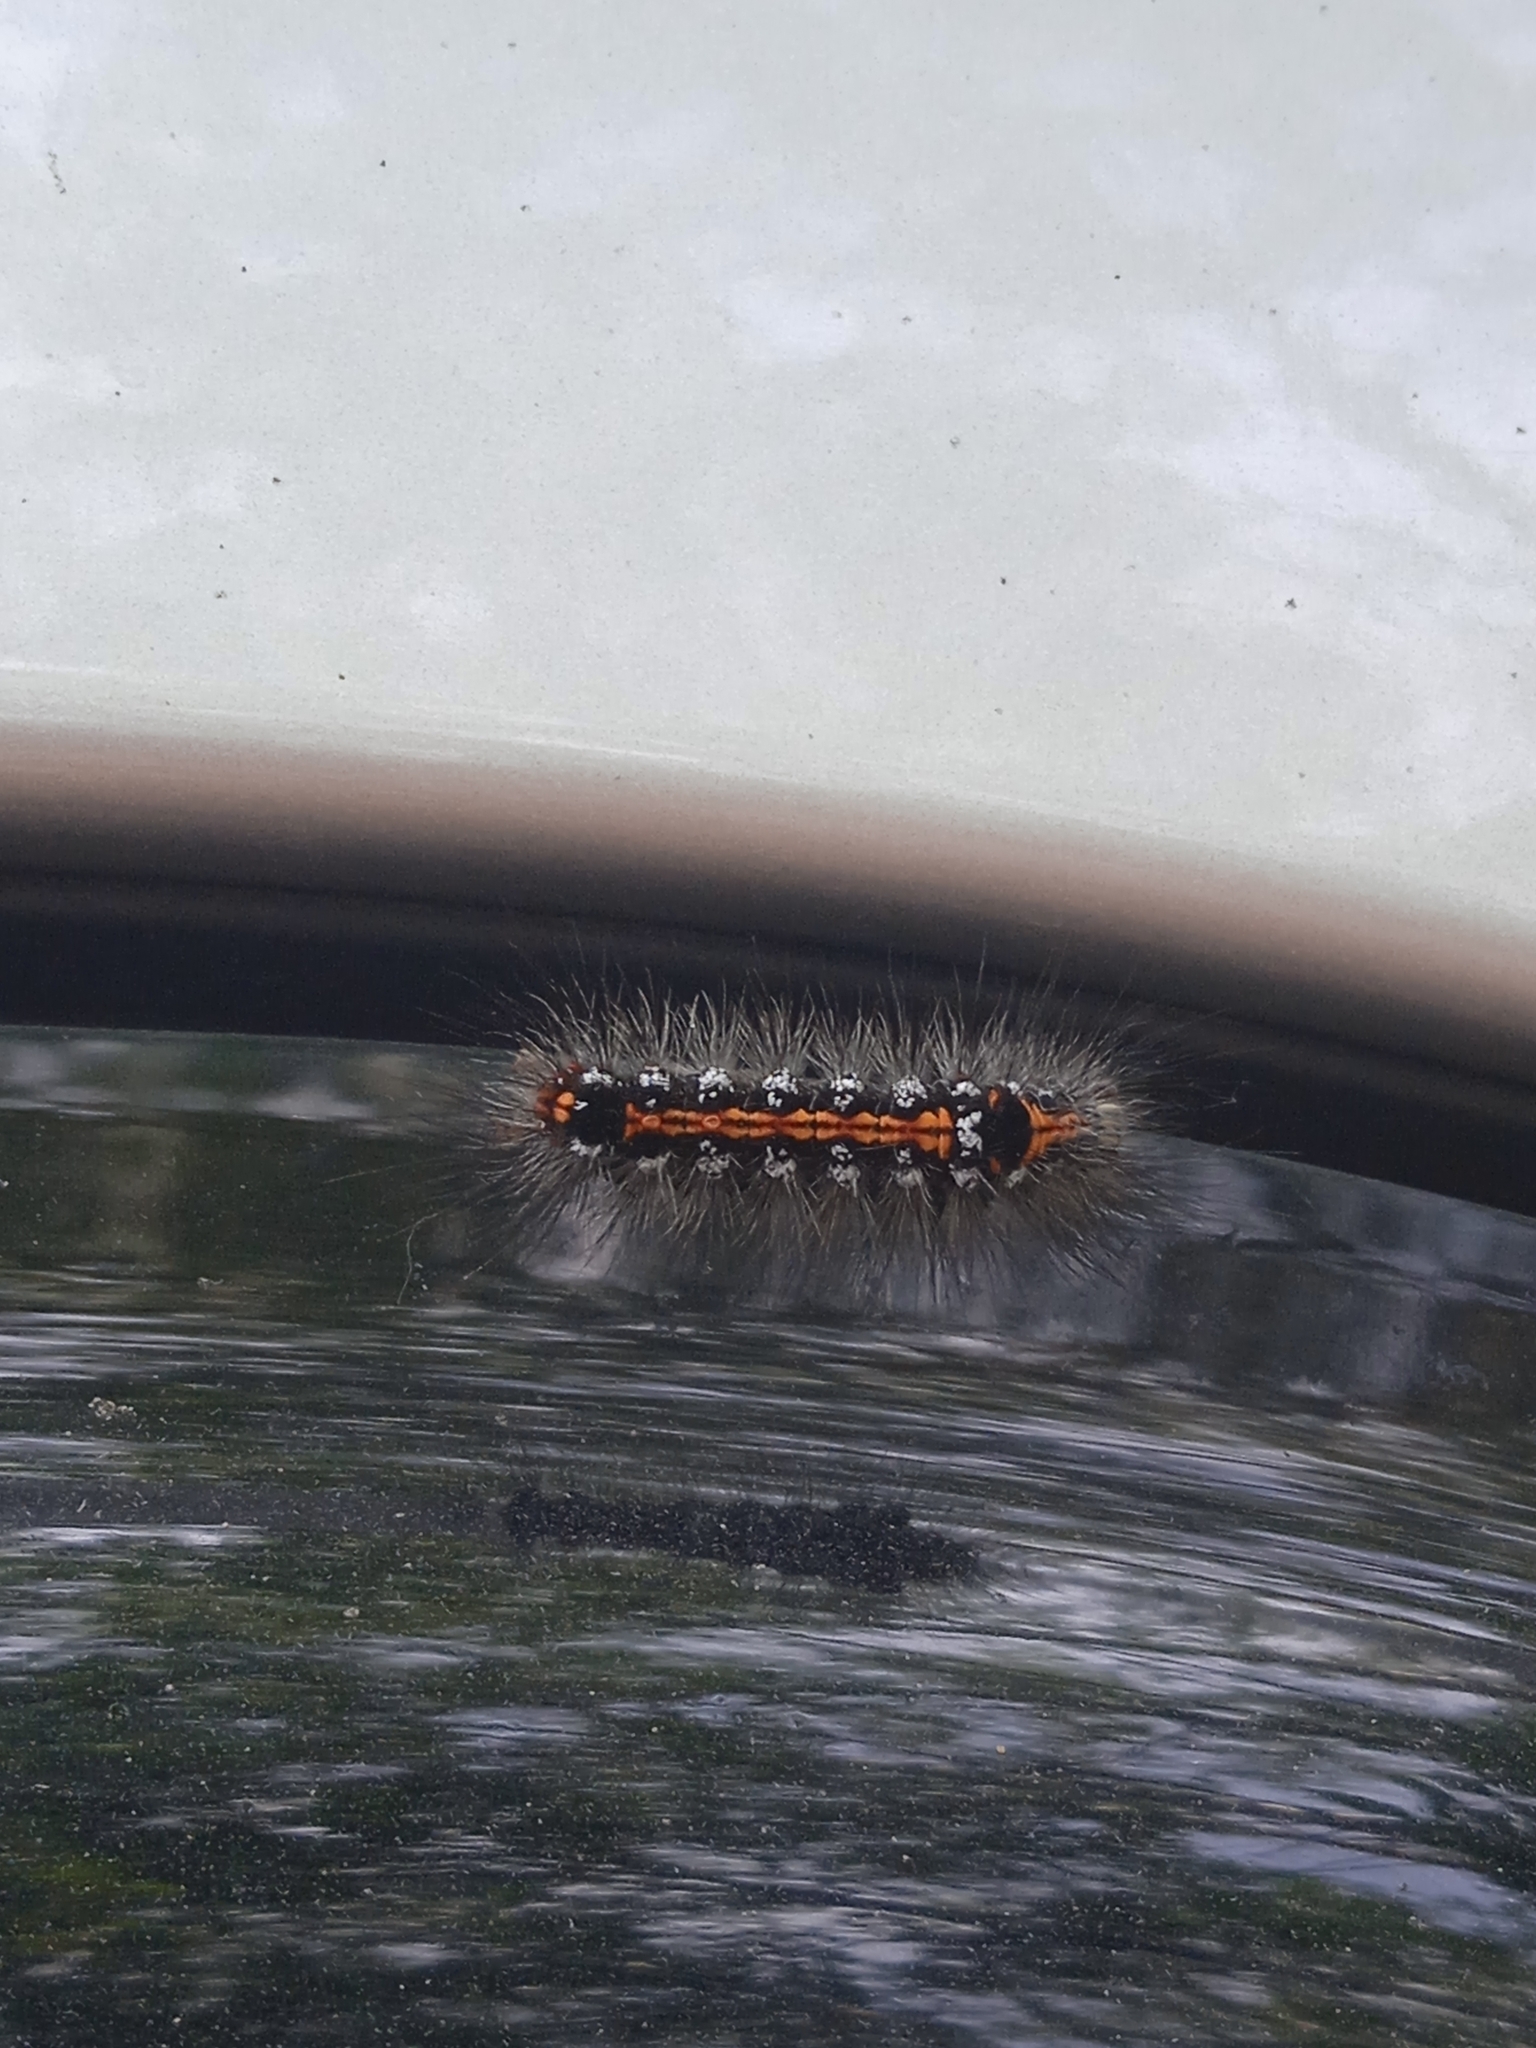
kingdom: Animalia
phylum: Arthropoda
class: Insecta
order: Lepidoptera
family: Erebidae
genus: Sphrageidus
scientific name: Sphrageidus similis
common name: Yellow-tail
